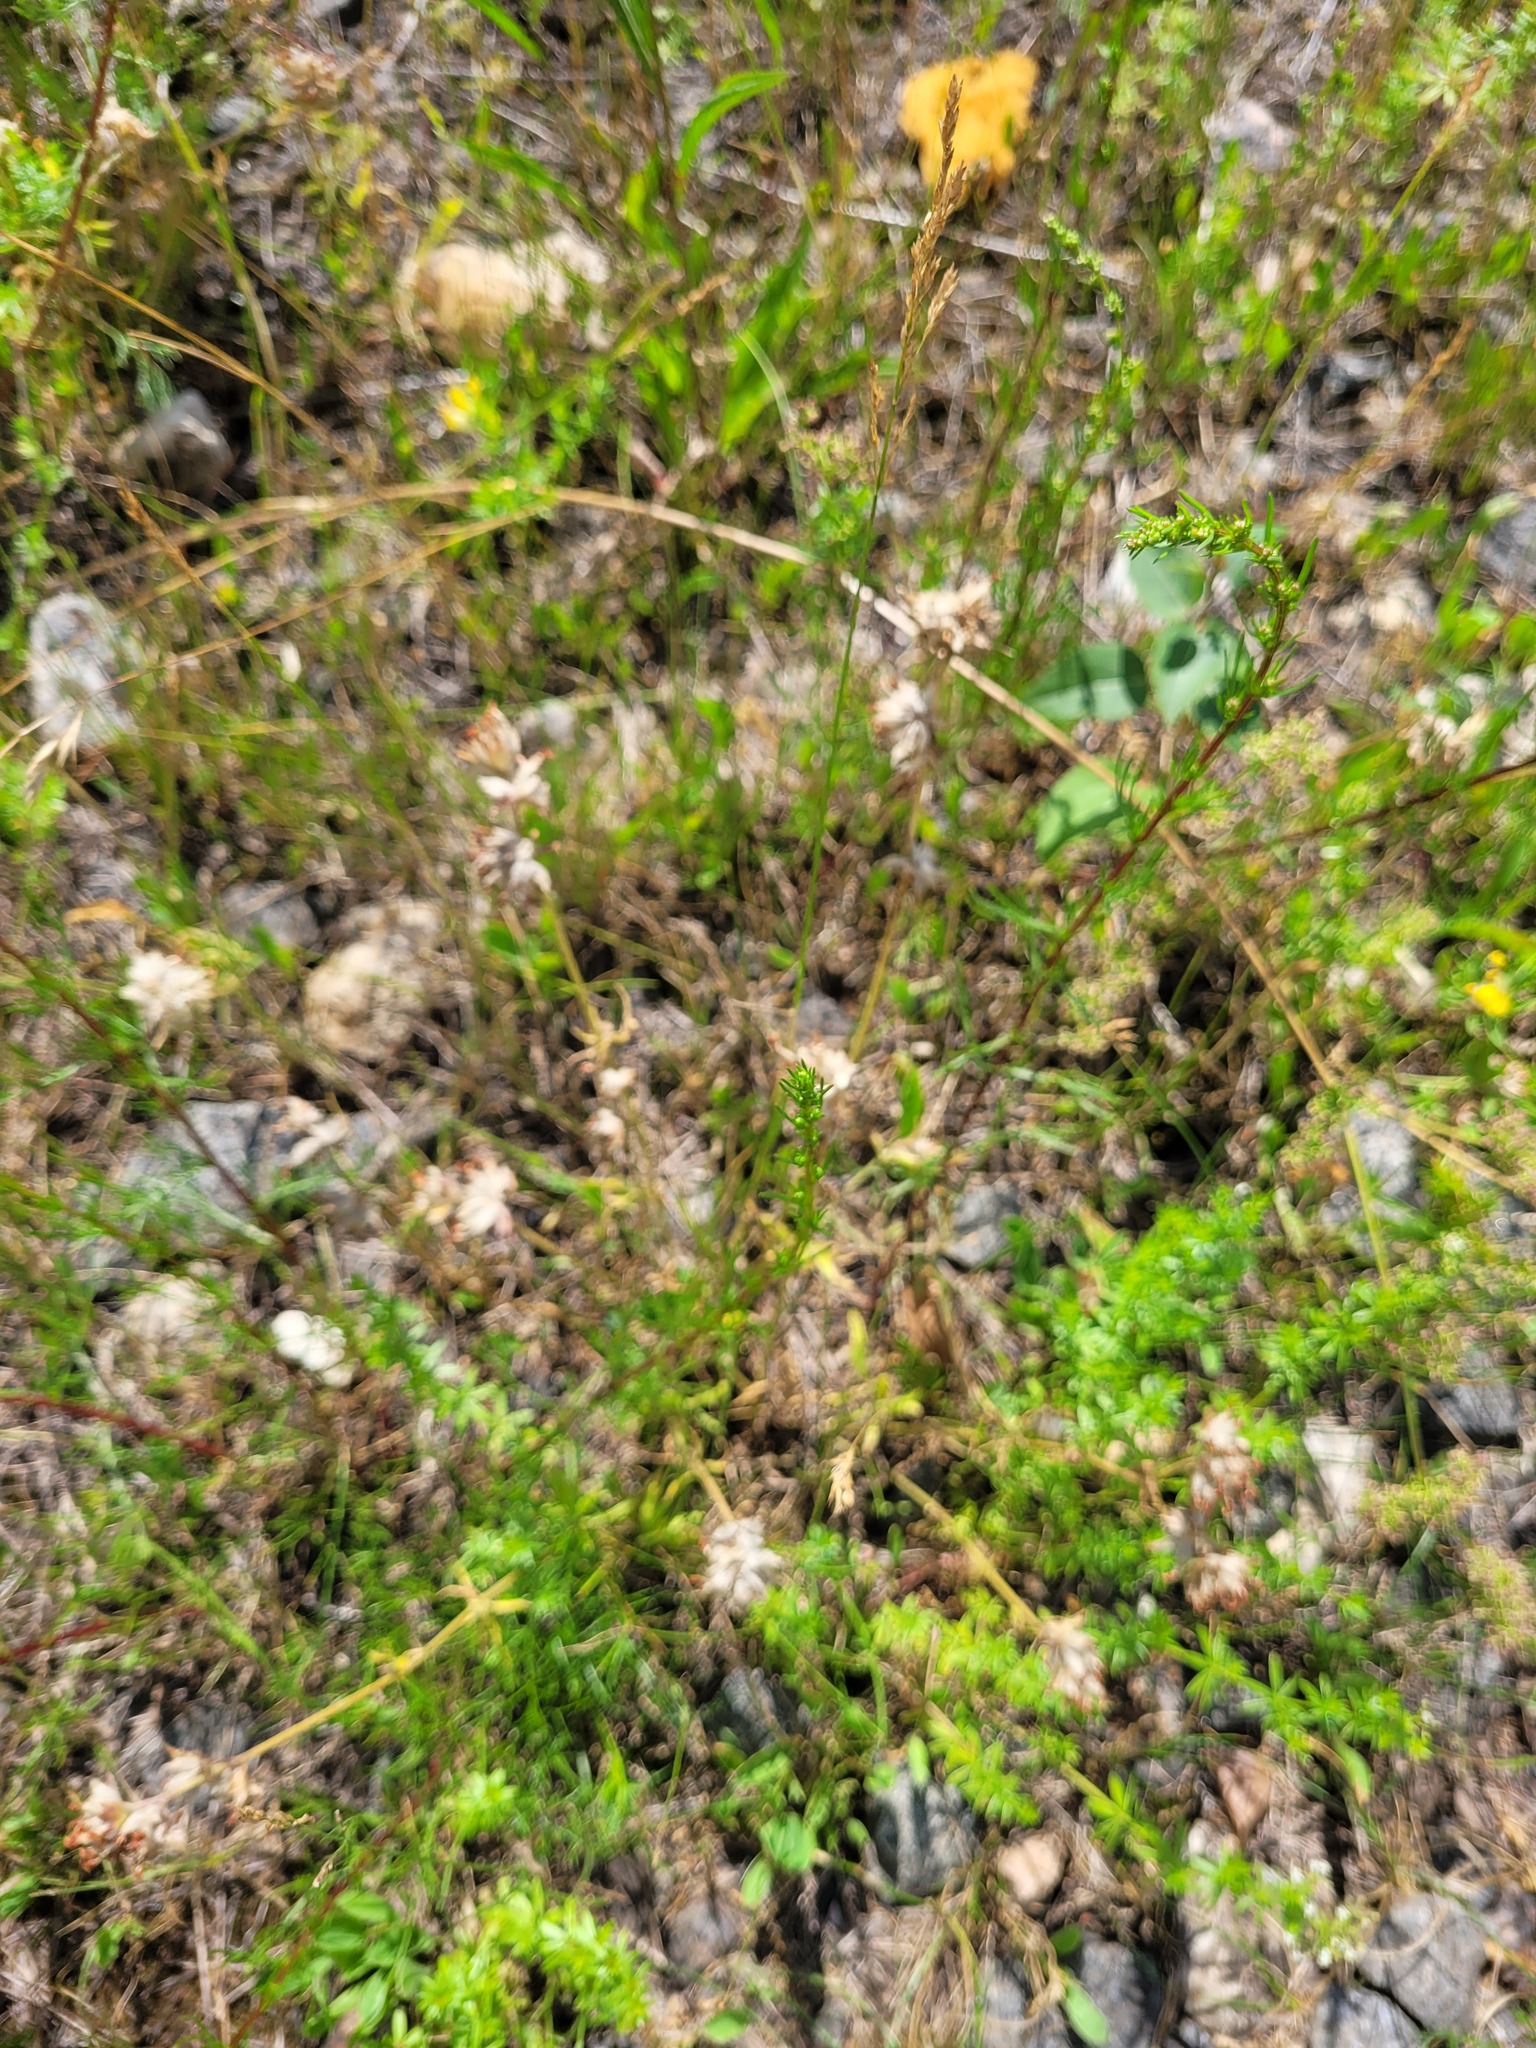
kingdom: Plantae
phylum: Tracheophyta
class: Magnoliopsida
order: Asterales
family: Asteraceae
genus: Artemisia
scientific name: Artemisia campestris
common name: Field wormwood
